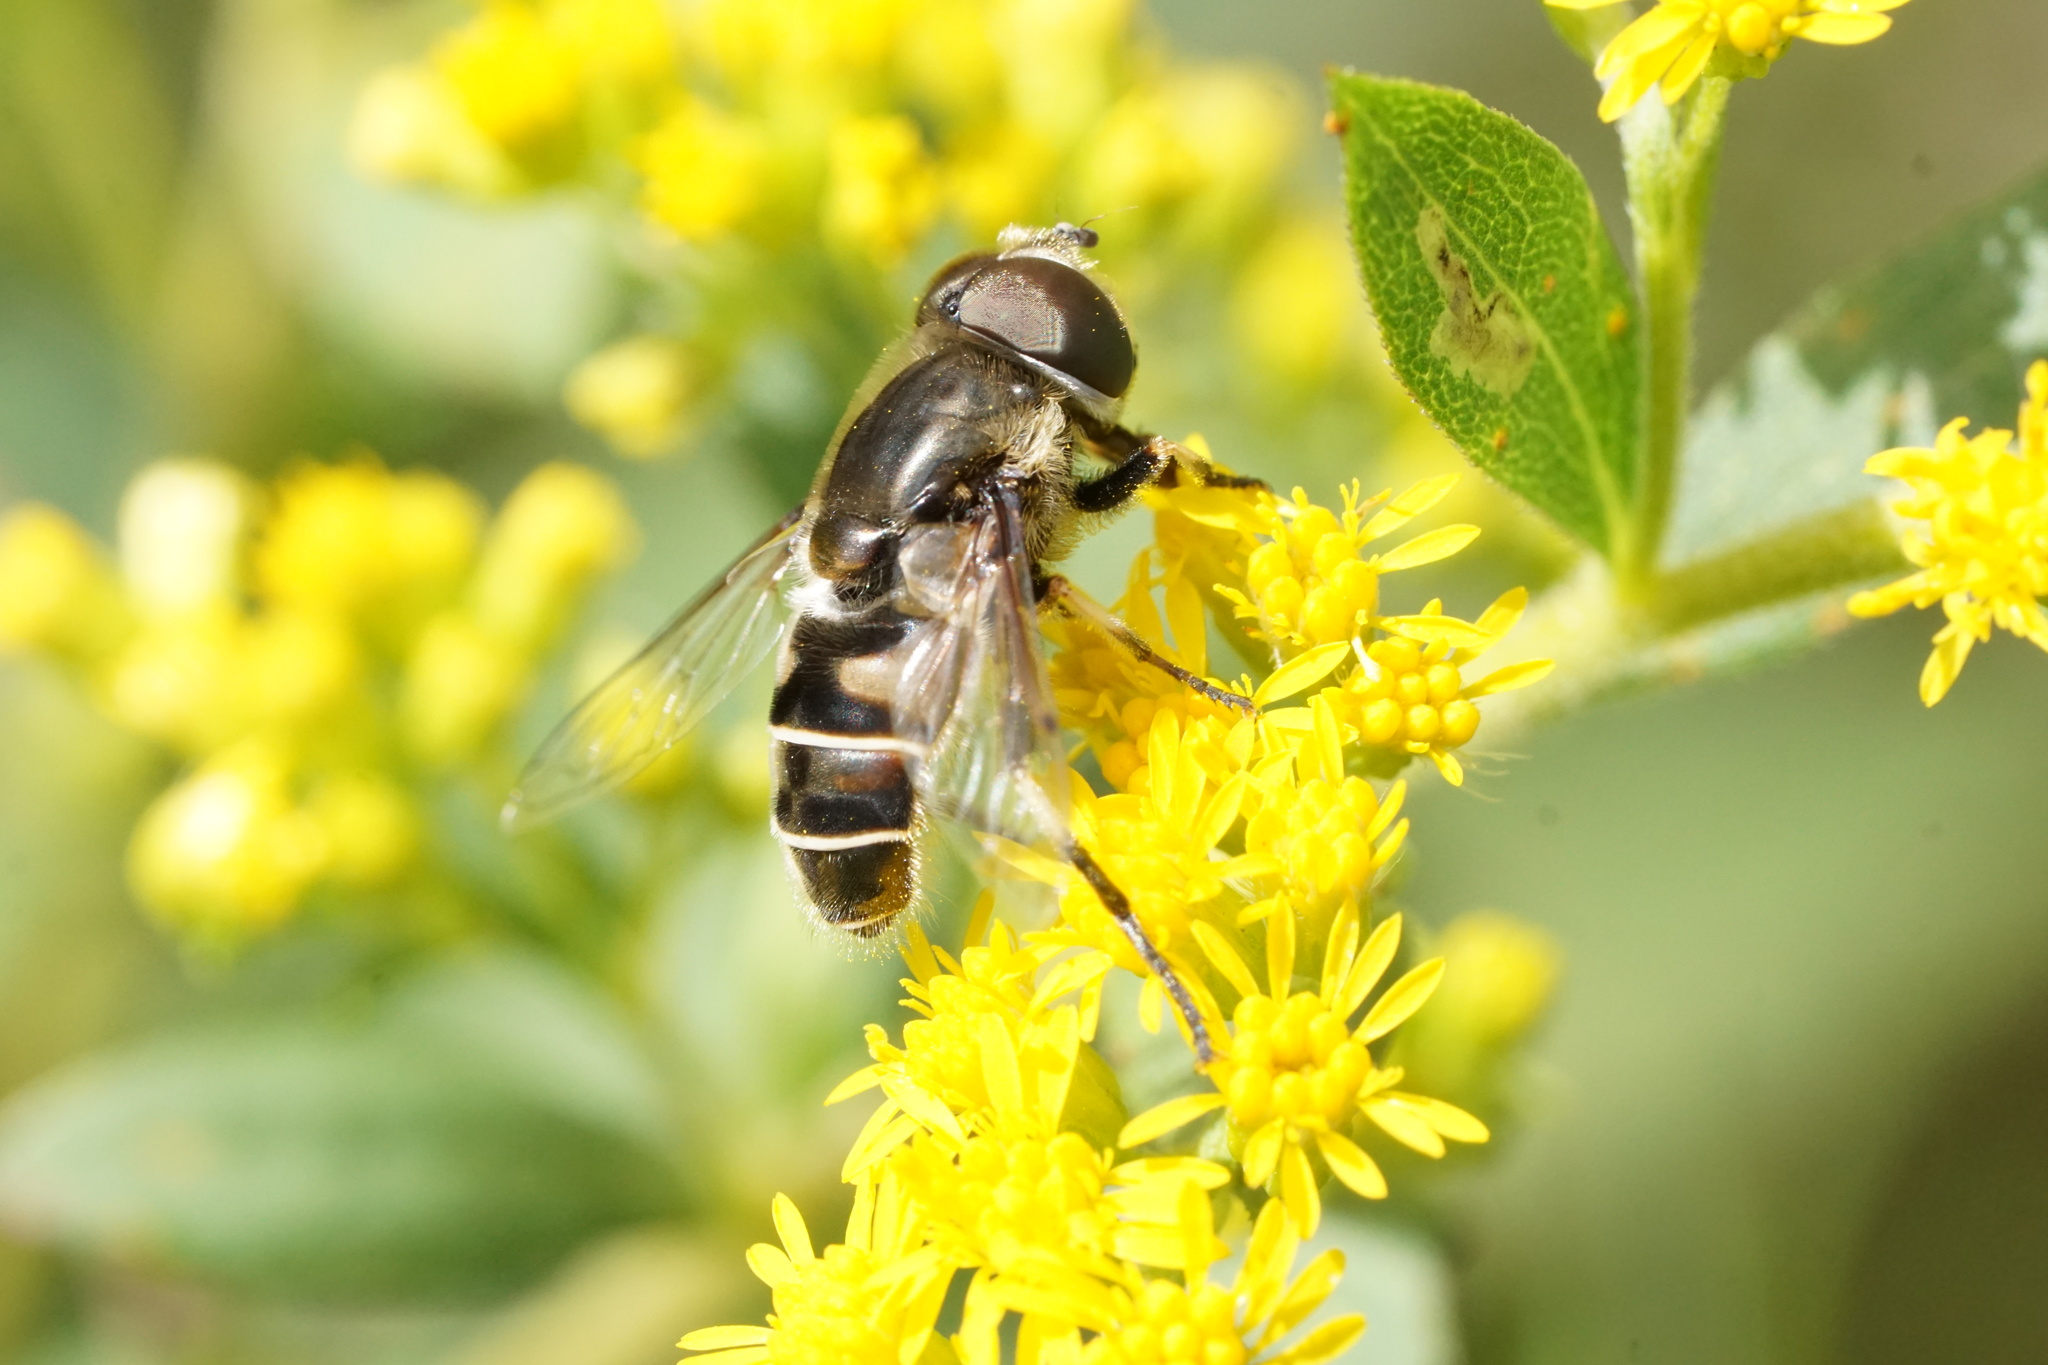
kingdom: Animalia
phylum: Arthropoda
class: Insecta
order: Diptera
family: Syrphidae
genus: Eristalis
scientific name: Eristalis dimidiata
